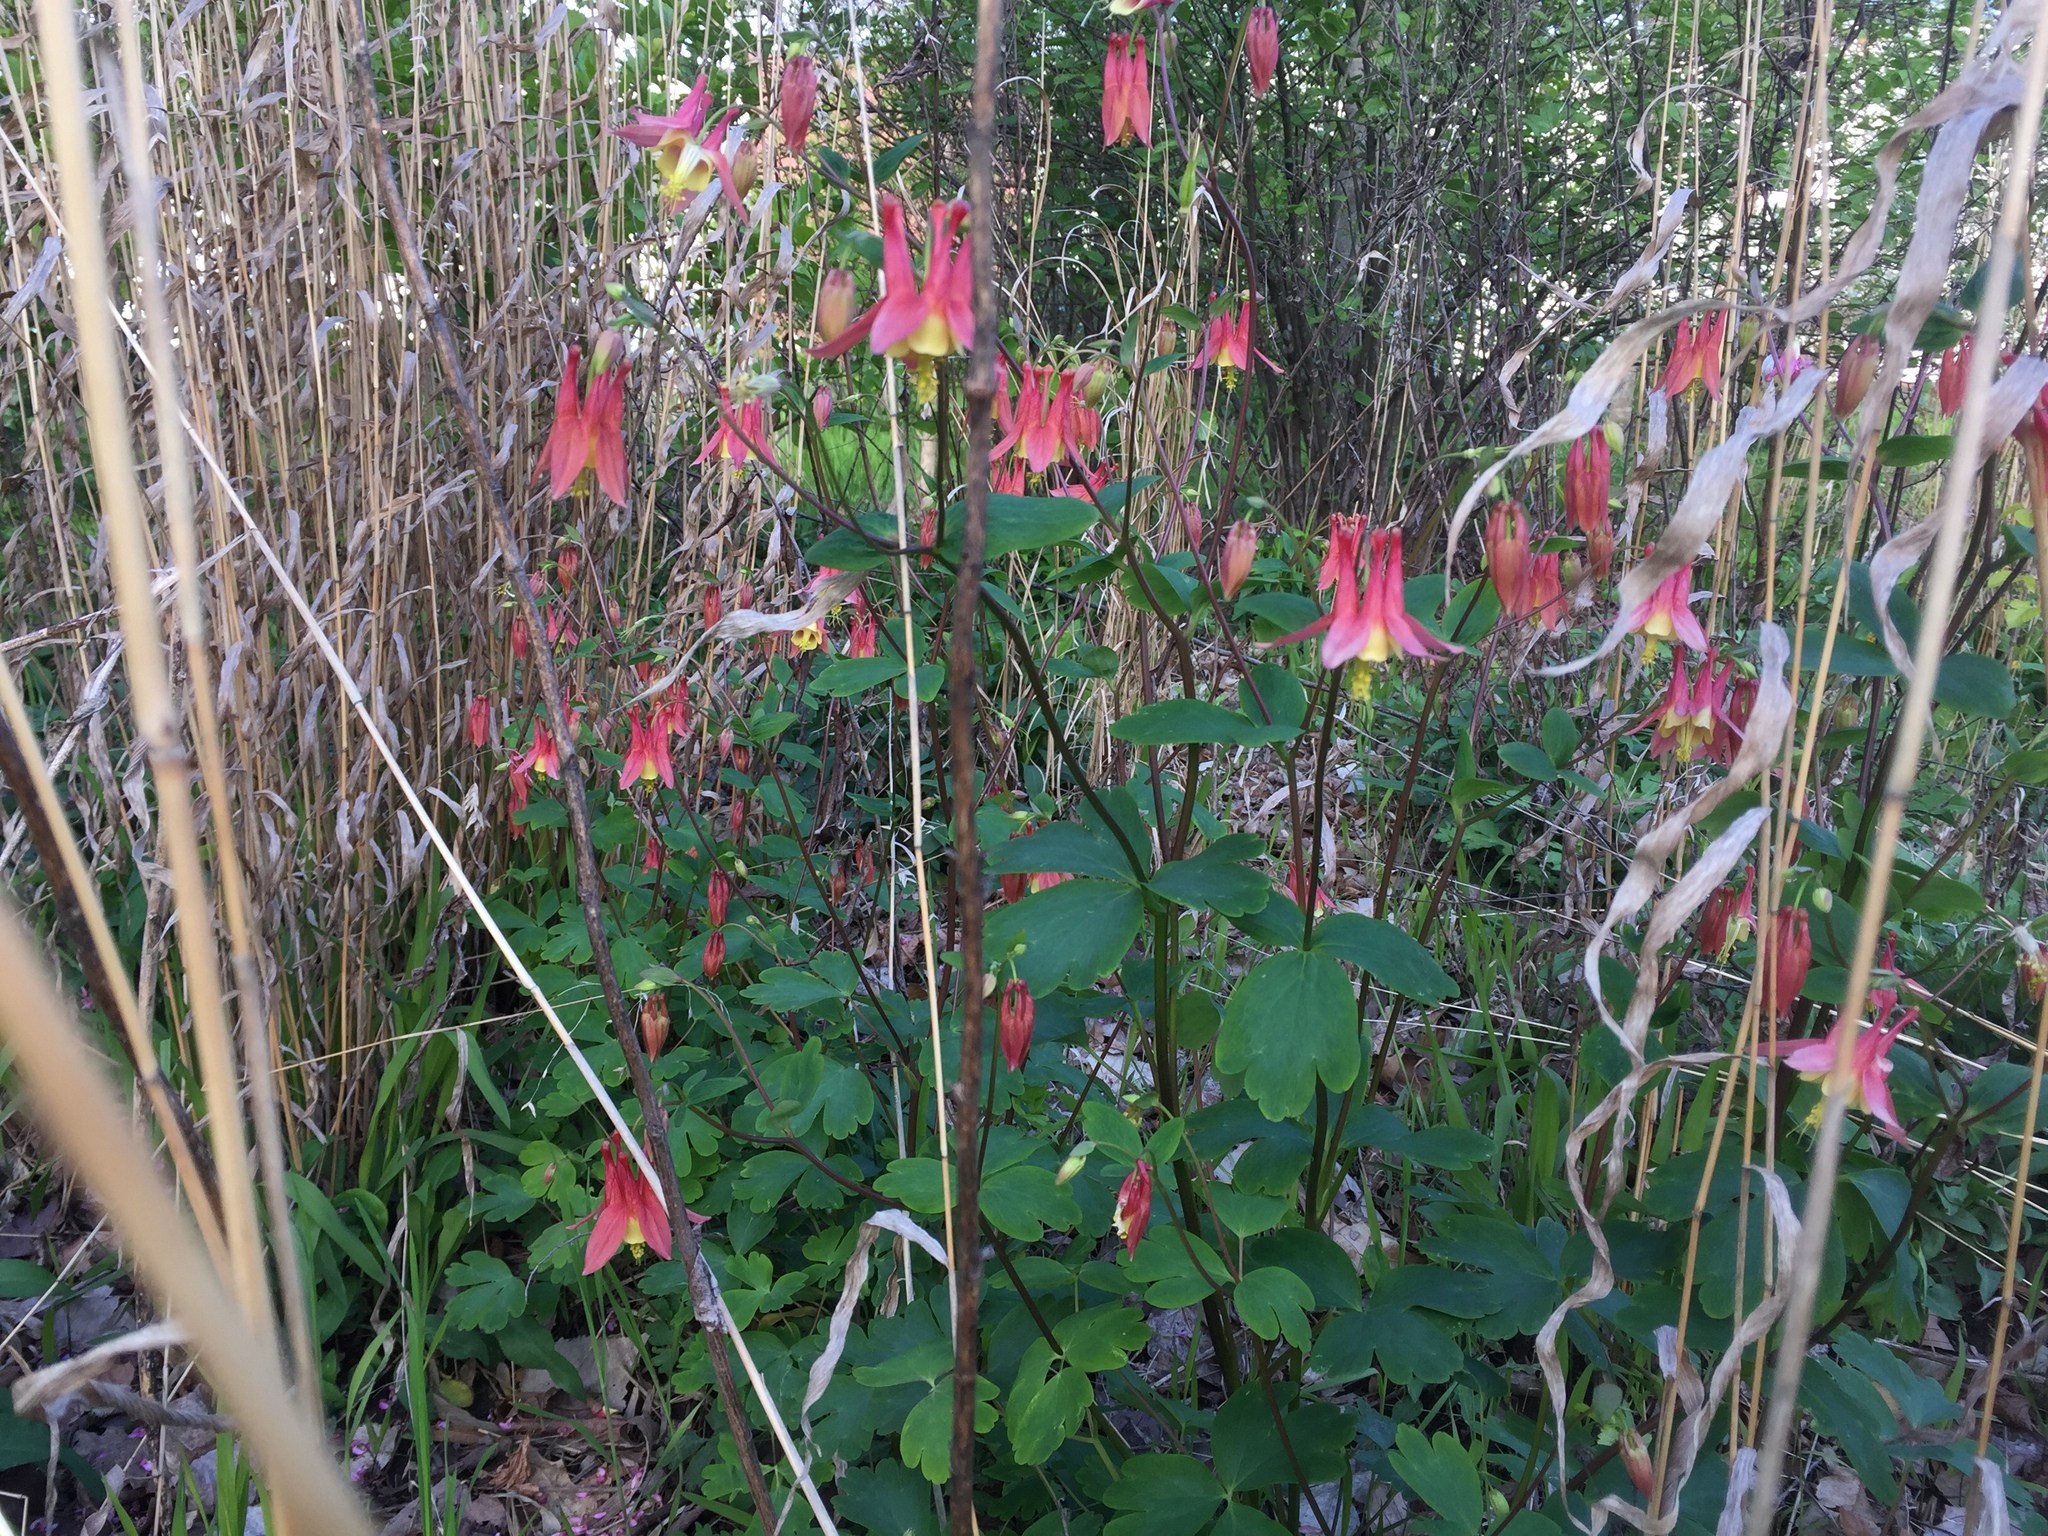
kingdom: Plantae
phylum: Tracheophyta
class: Magnoliopsida
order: Ranunculales
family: Ranunculaceae
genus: Aquilegia
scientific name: Aquilegia canadensis
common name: American columbine
